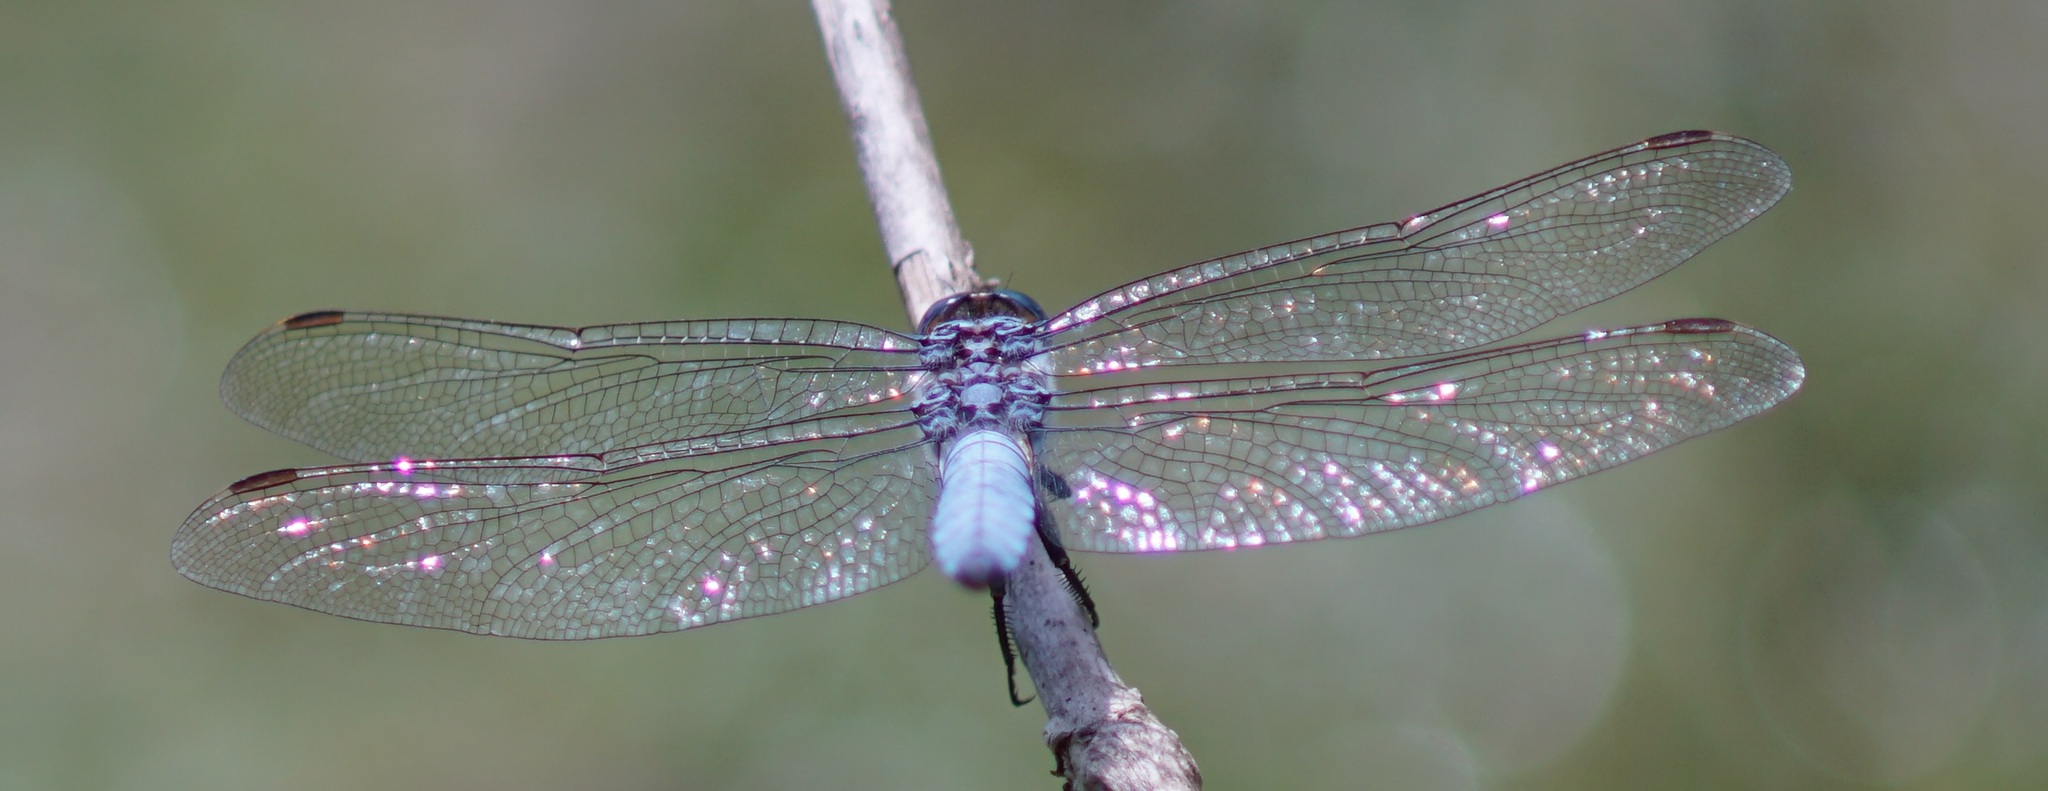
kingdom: Animalia
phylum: Arthropoda
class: Insecta
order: Odonata
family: Libellulidae
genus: Orthetrum
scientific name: Orthetrum brunneum
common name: Southern skimmer
